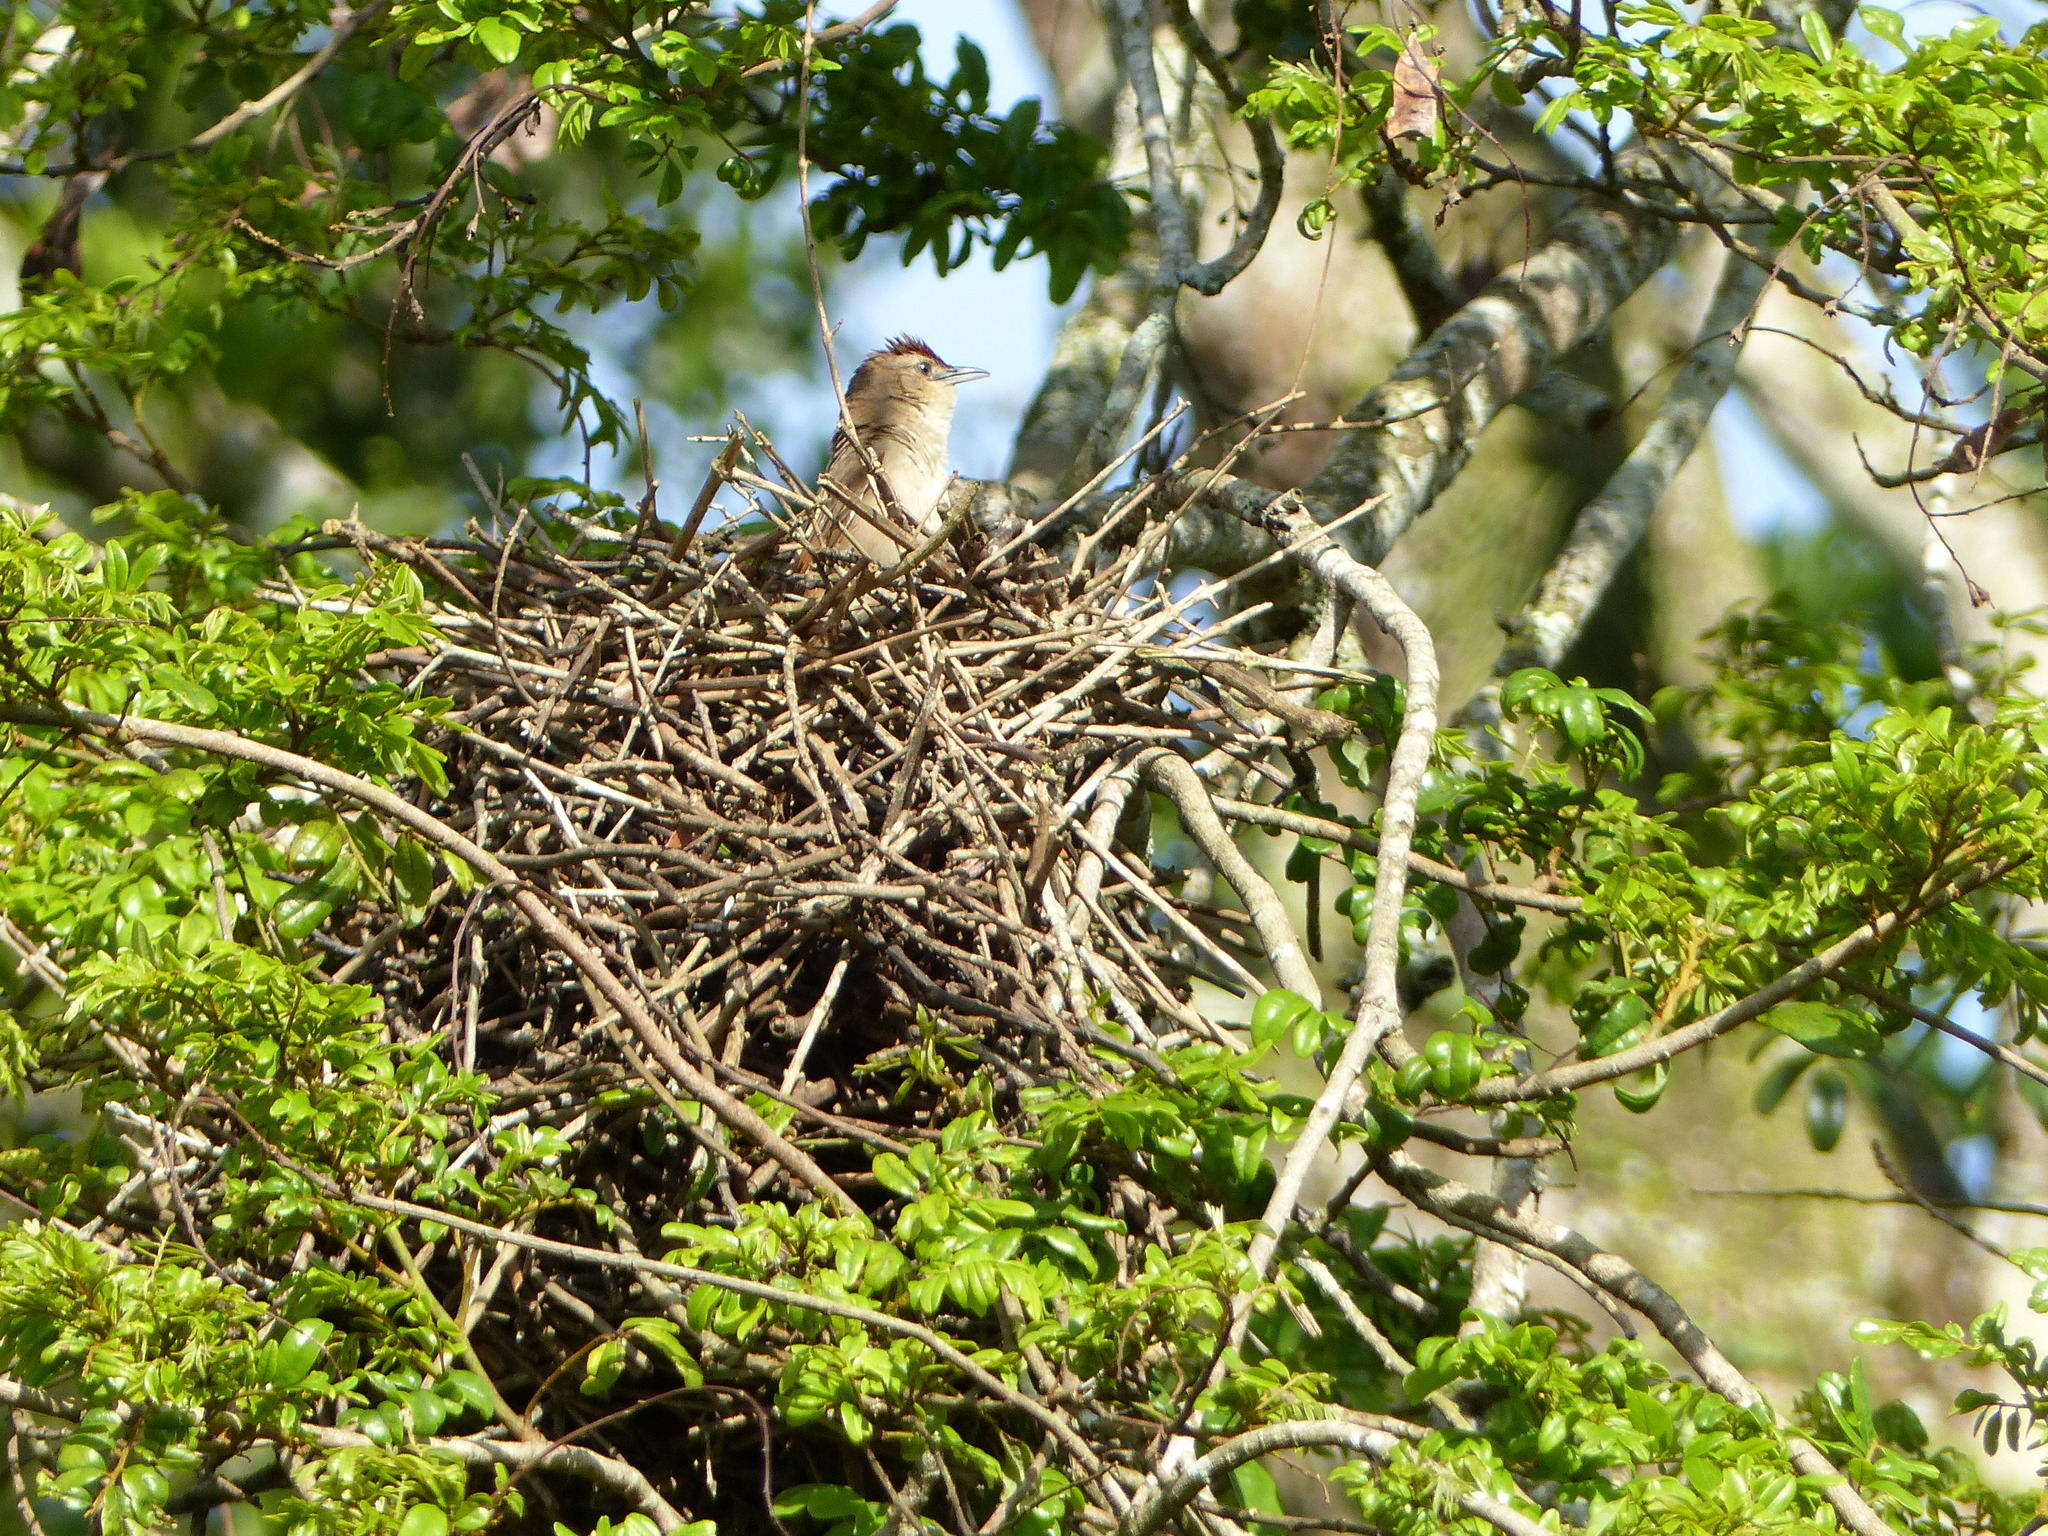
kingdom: Animalia
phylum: Chordata
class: Aves
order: Passeriformes
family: Furnariidae
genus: Phacellodomus
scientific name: Phacellodomus rufifrons
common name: Rufous-fronted thornbird
